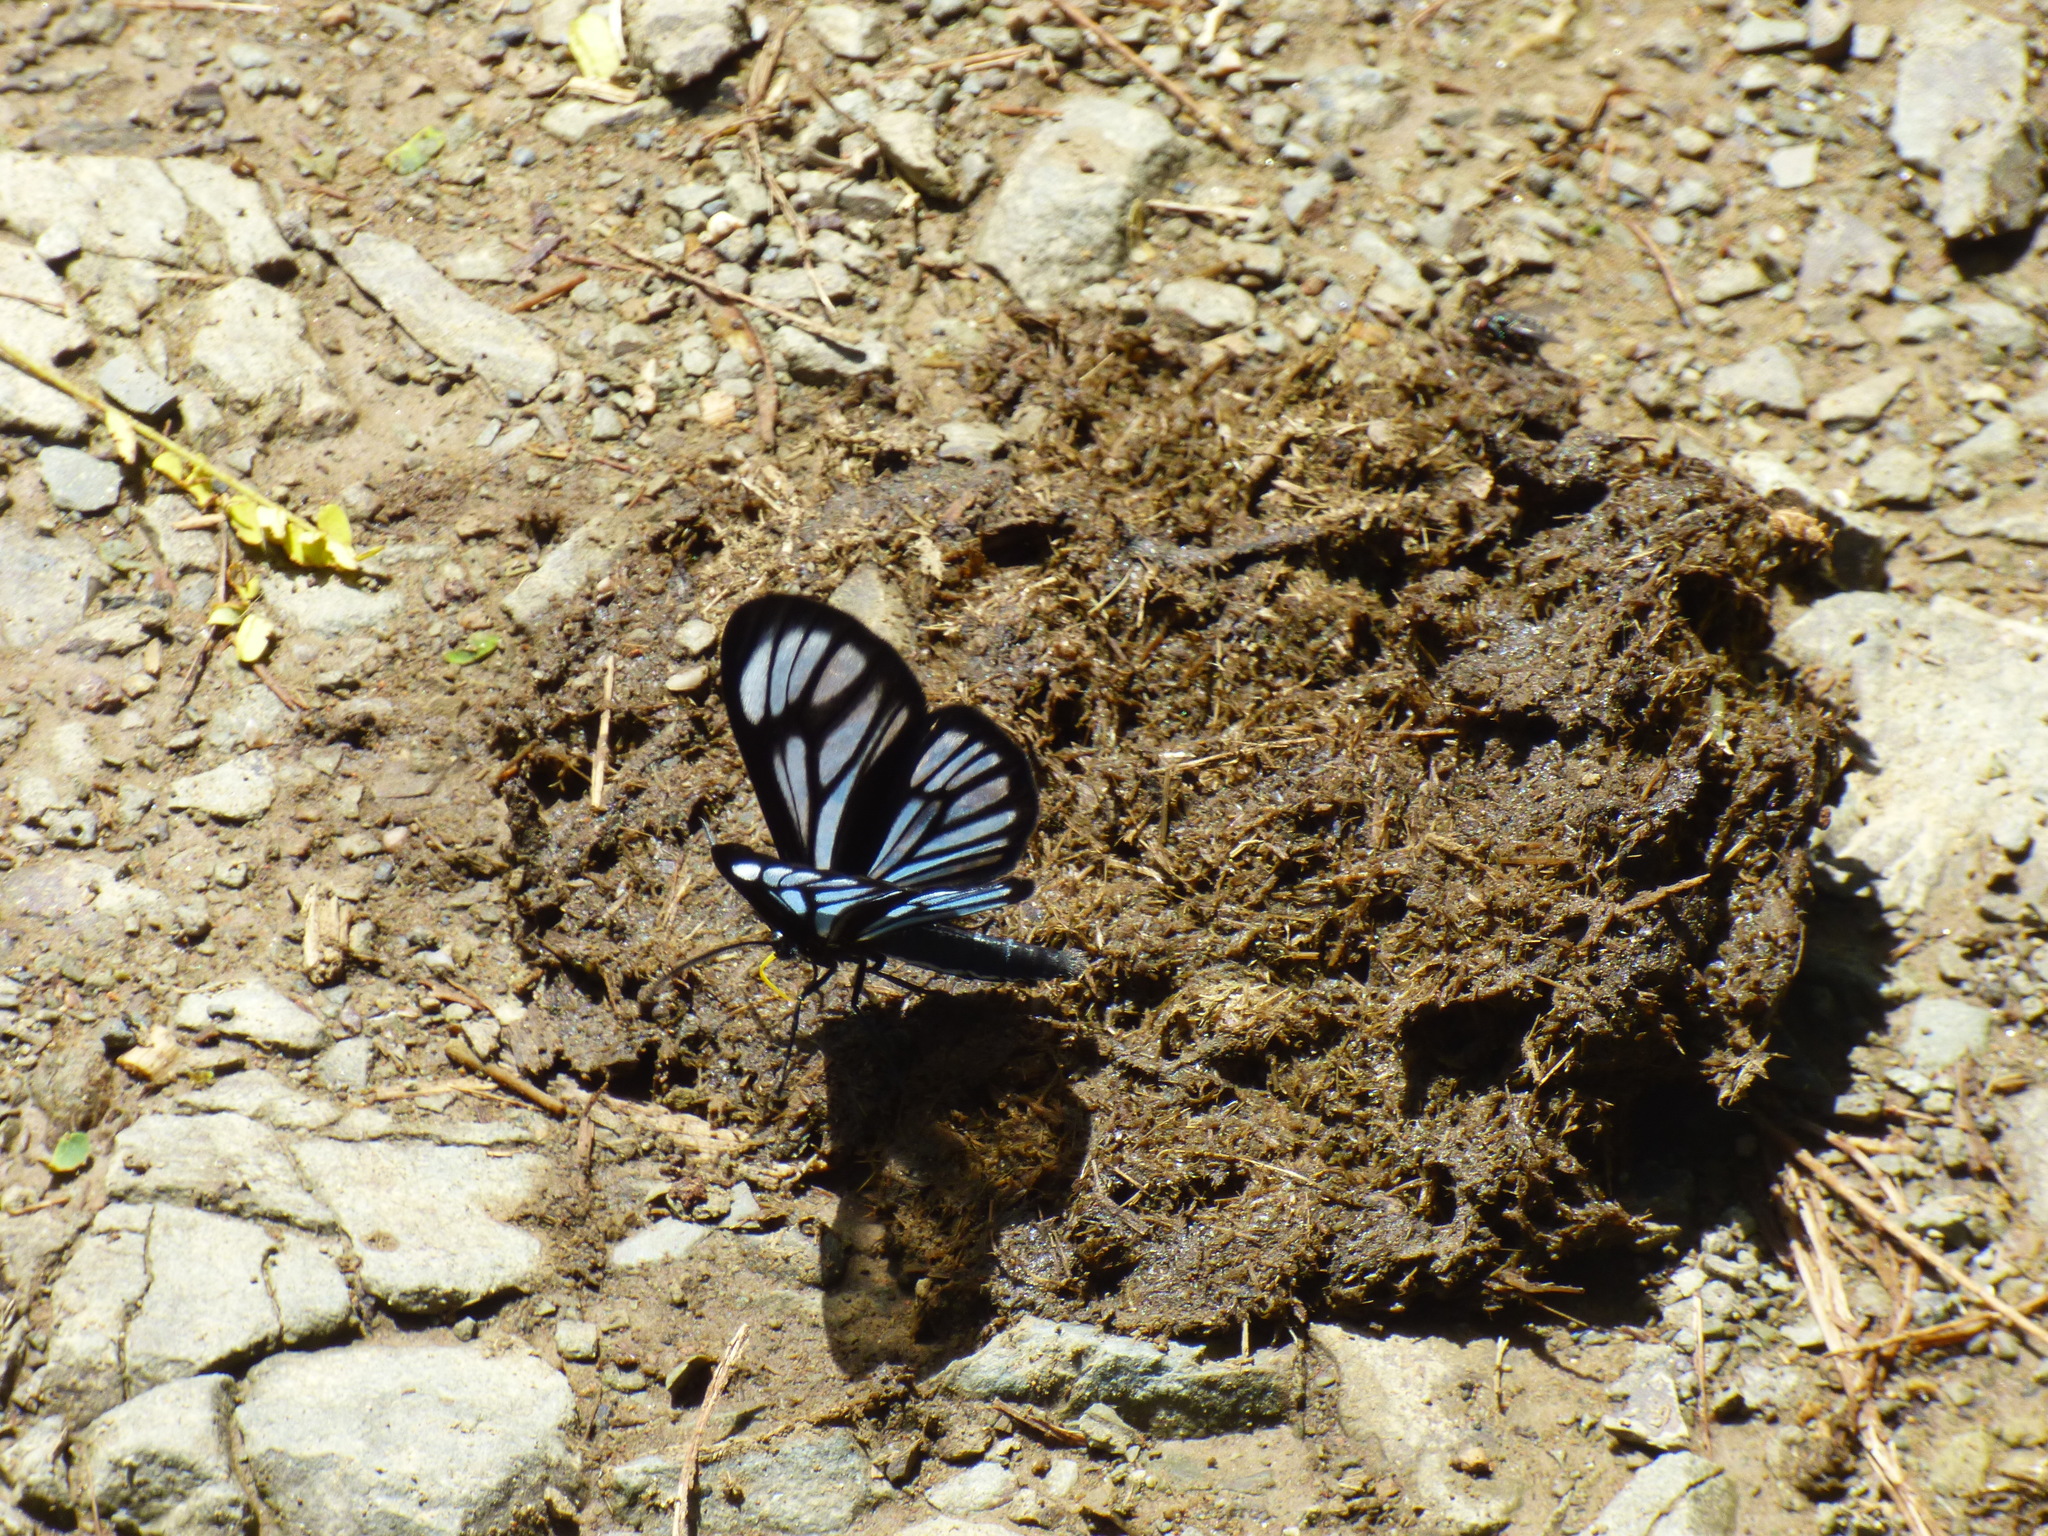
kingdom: Animalia
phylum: Arthropoda
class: Insecta
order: Lepidoptera
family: Geometridae
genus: Gonora
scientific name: Gonora hyelosioides
